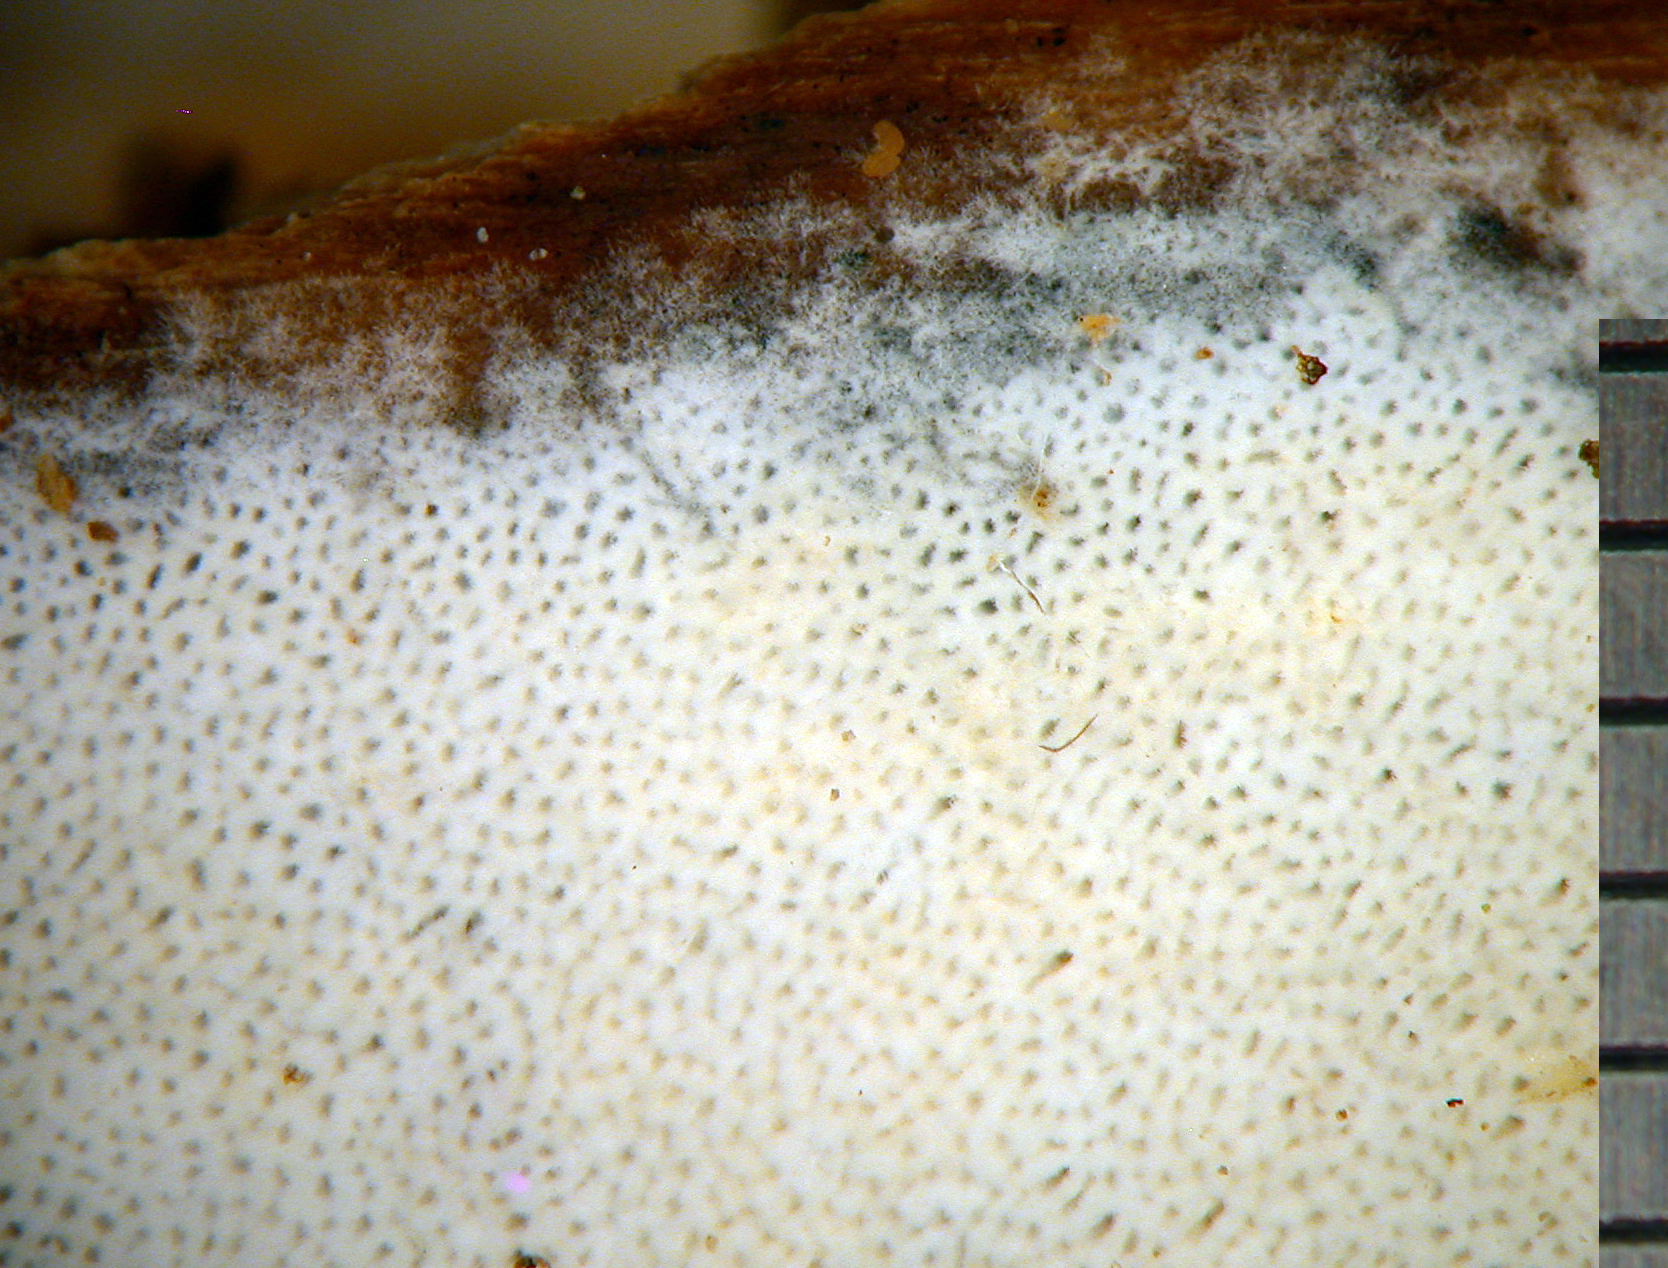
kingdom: Fungi
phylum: Basidiomycota
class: Agaricomycetes
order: Hymenochaetales
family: Rickenellaceae
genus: Sidera
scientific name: Sidera lowei
